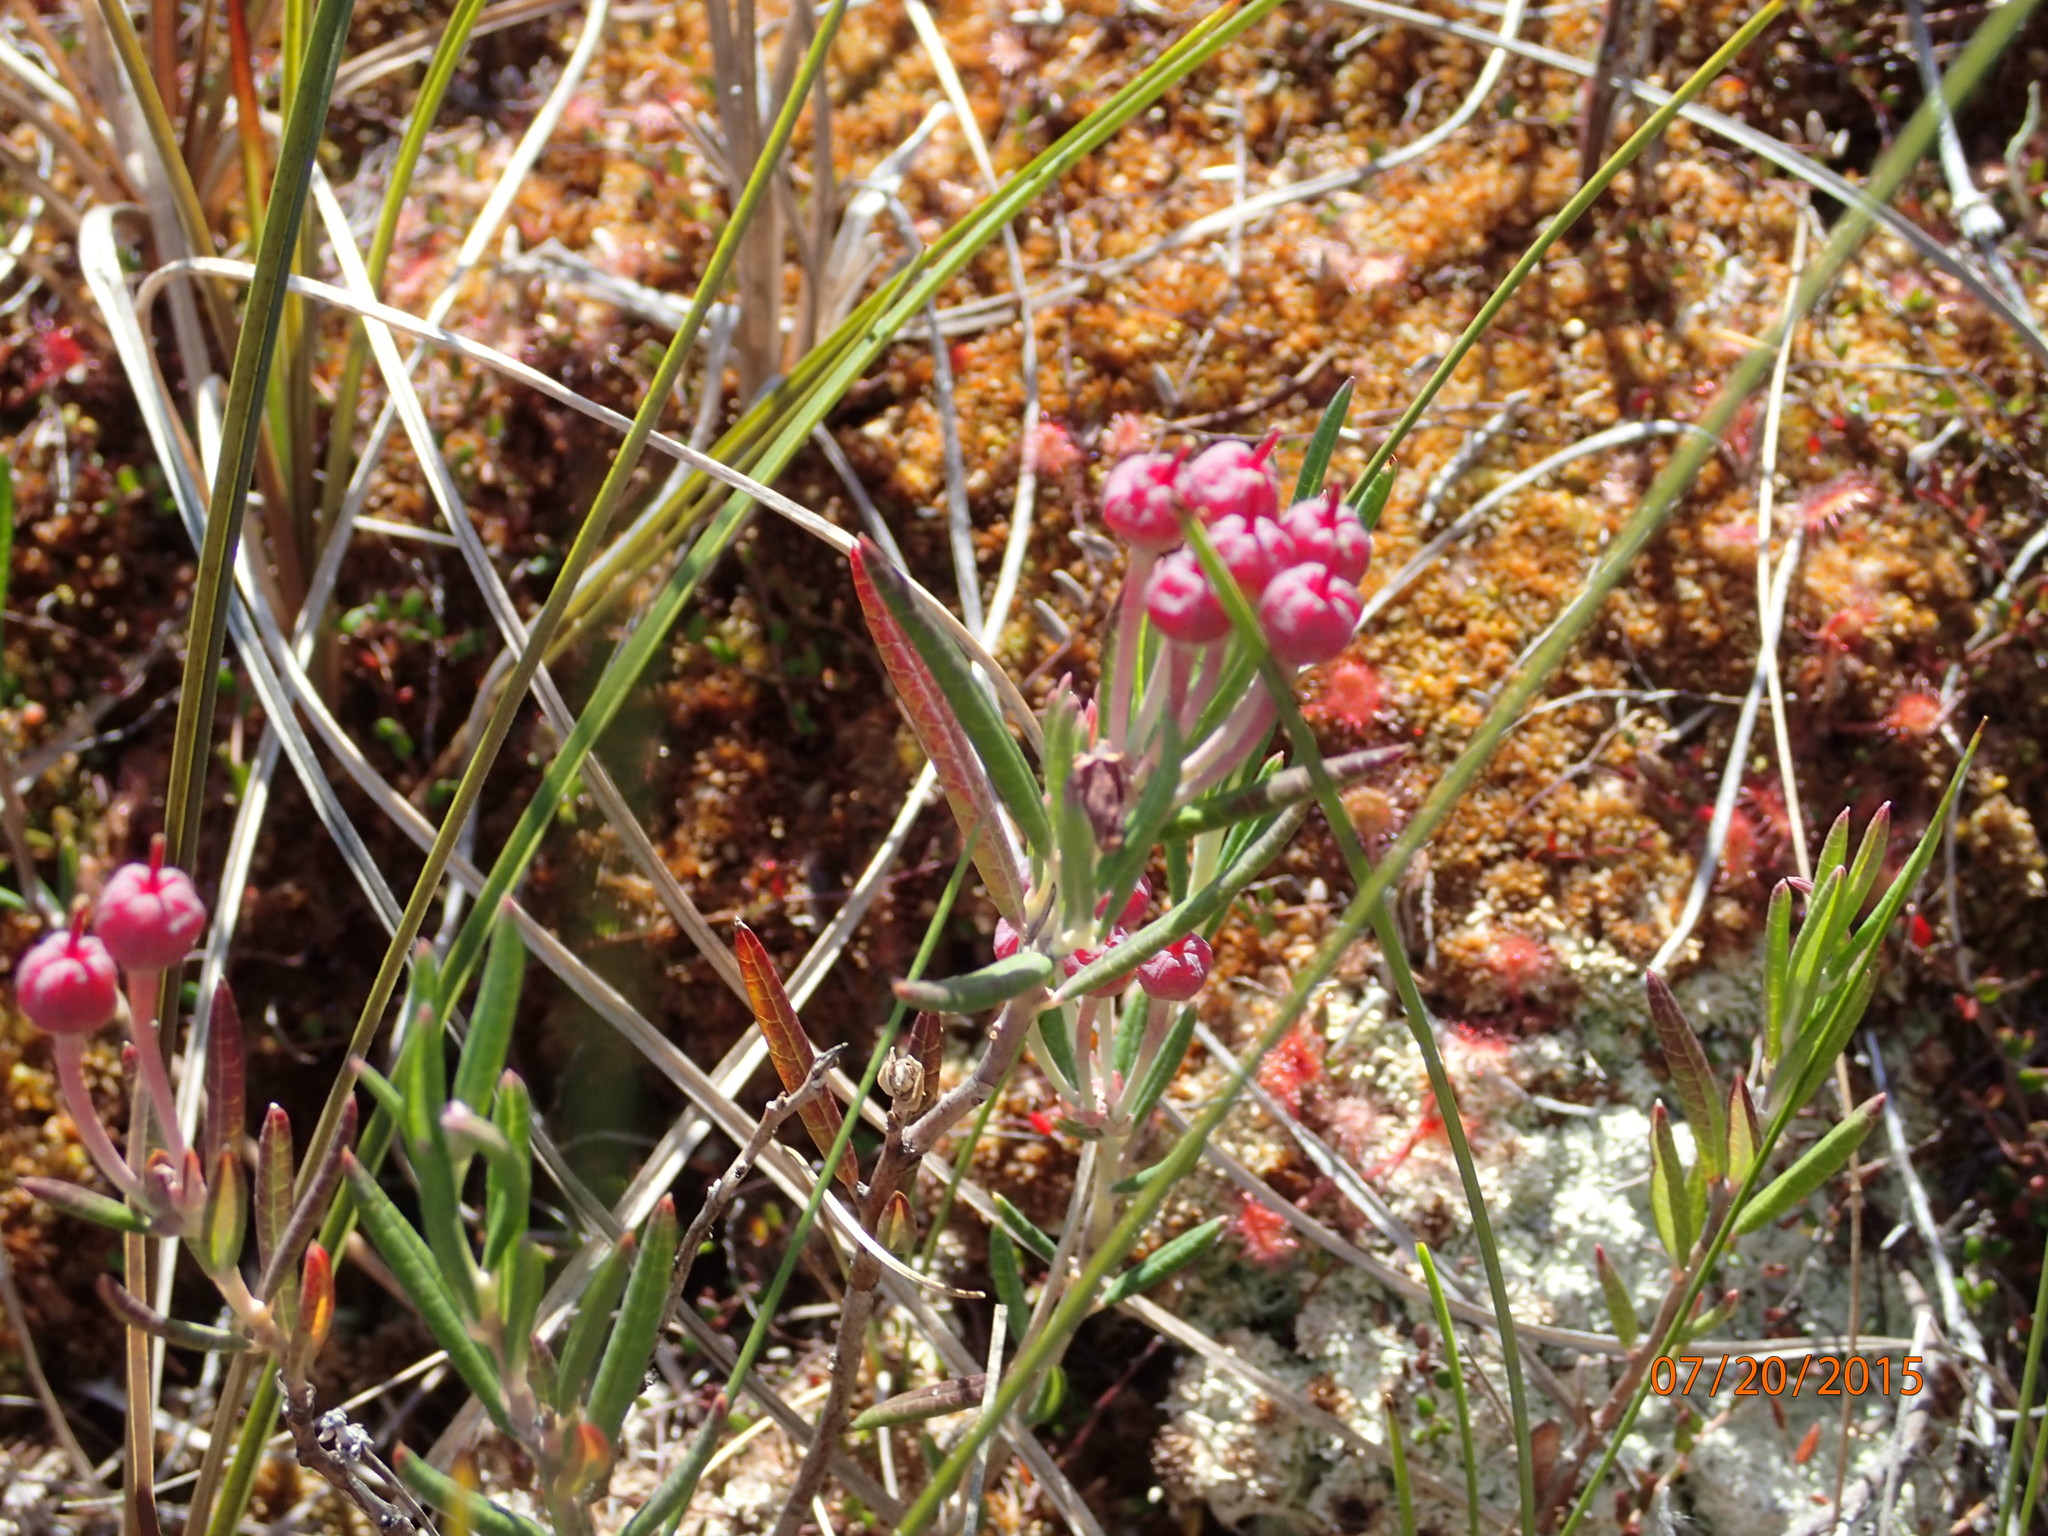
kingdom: Plantae
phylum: Tracheophyta
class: Magnoliopsida
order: Ericales
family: Ericaceae
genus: Andromeda
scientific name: Andromeda polifolia
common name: Bog-rosemary
